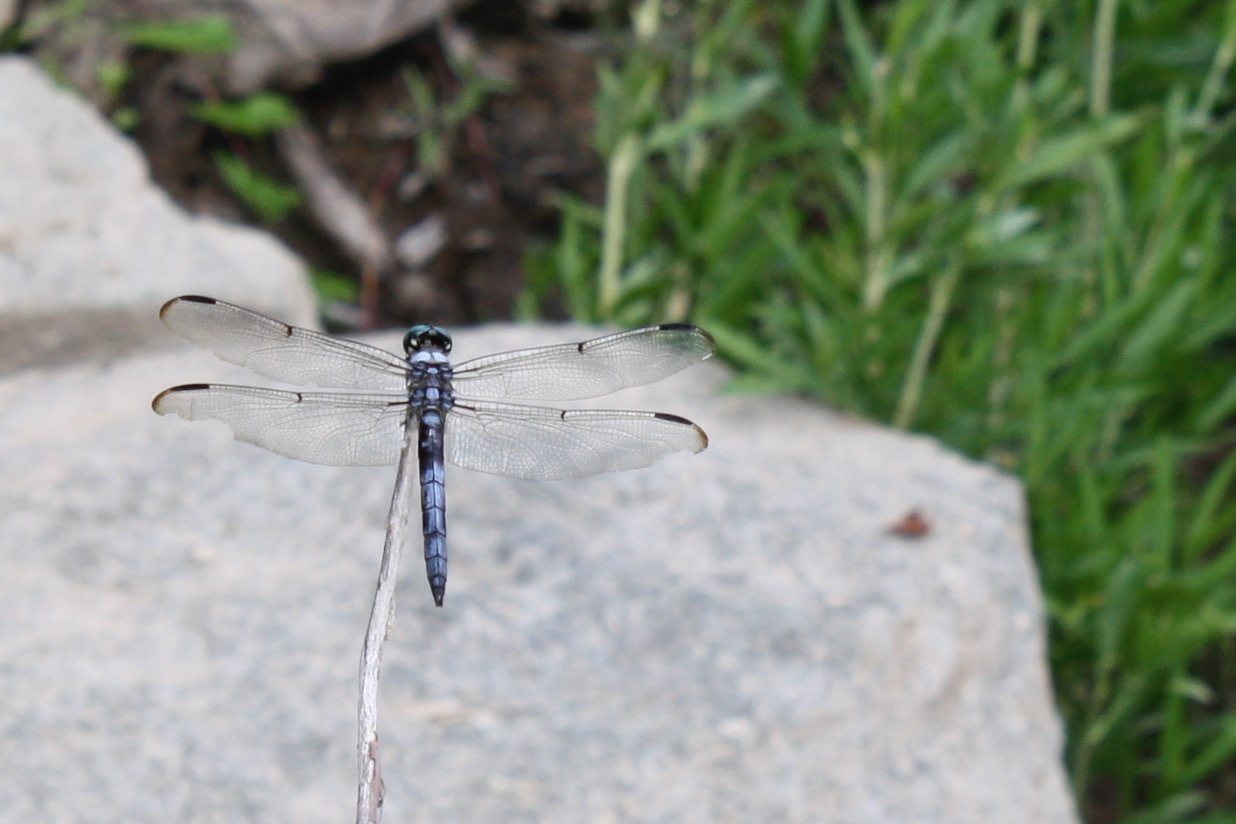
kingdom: Animalia
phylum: Arthropoda
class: Insecta
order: Odonata
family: Libellulidae
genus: Libellula
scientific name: Libellula vibrans
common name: Great blue skimmer
